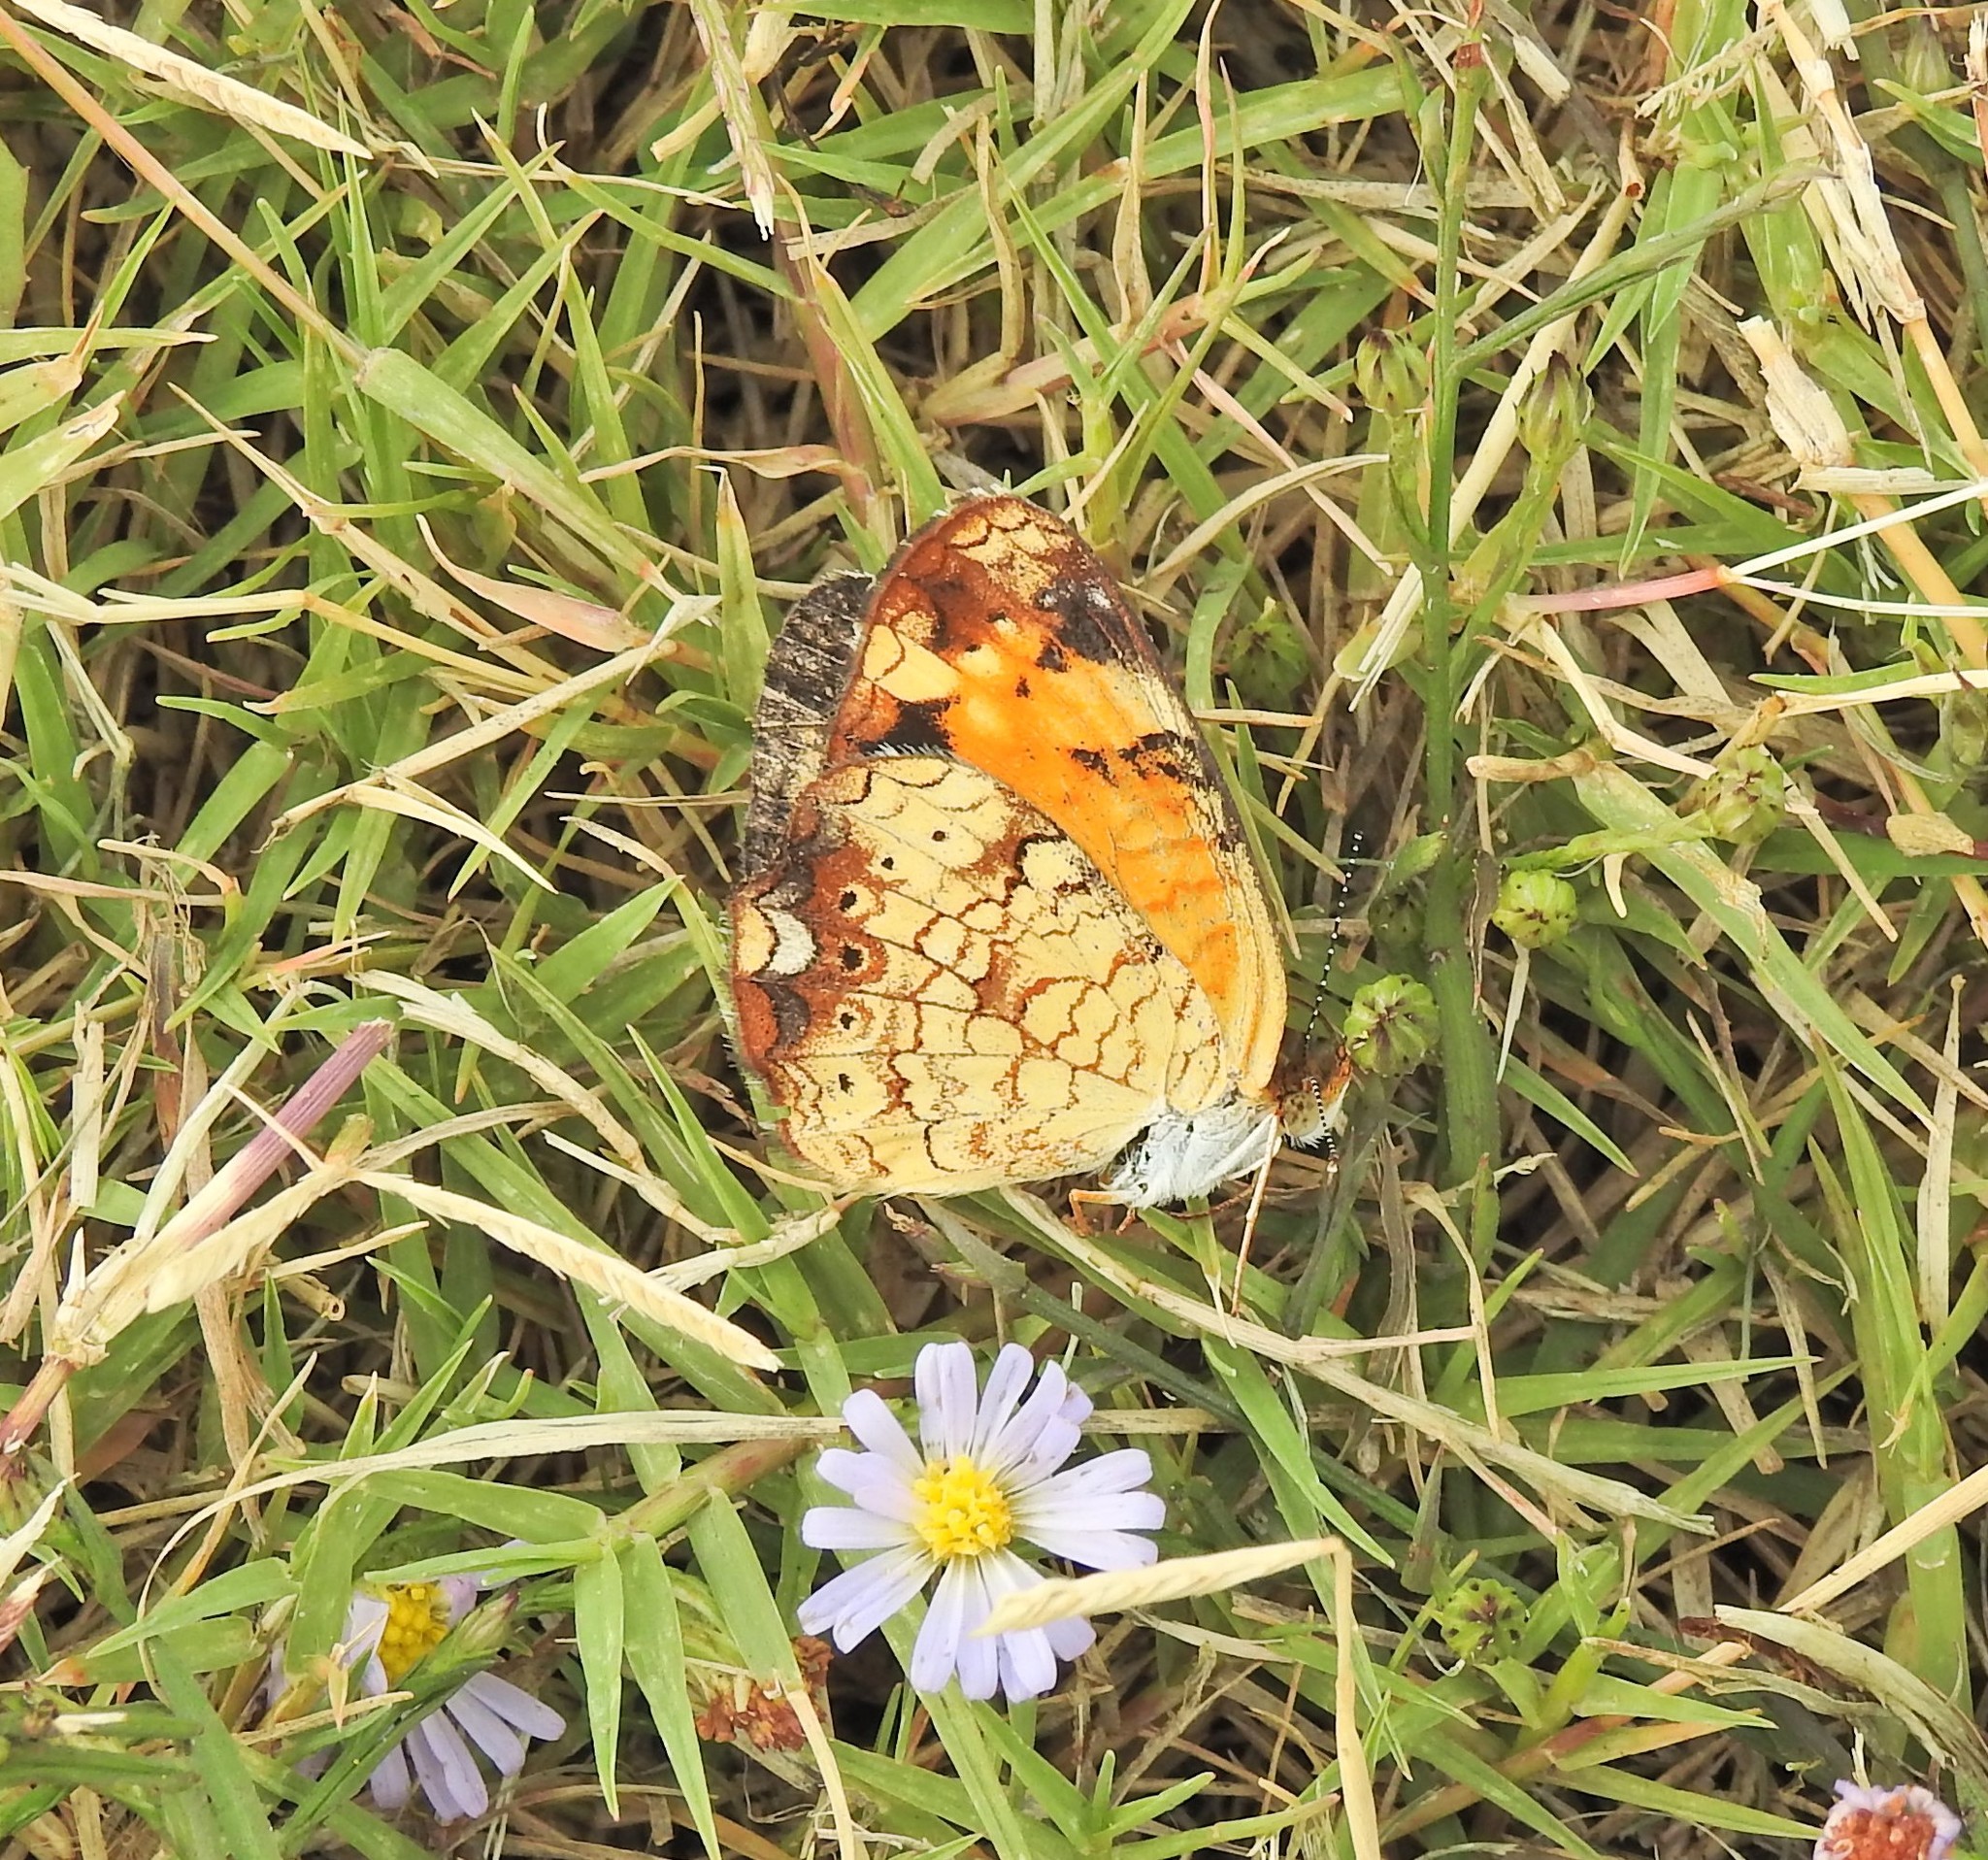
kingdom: Animalia
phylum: Arthropoda
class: Insecta
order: Lepidoptera
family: Nymphalidae
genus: Phyciodes
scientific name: Phyciodes tharos
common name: Pearl crescent
